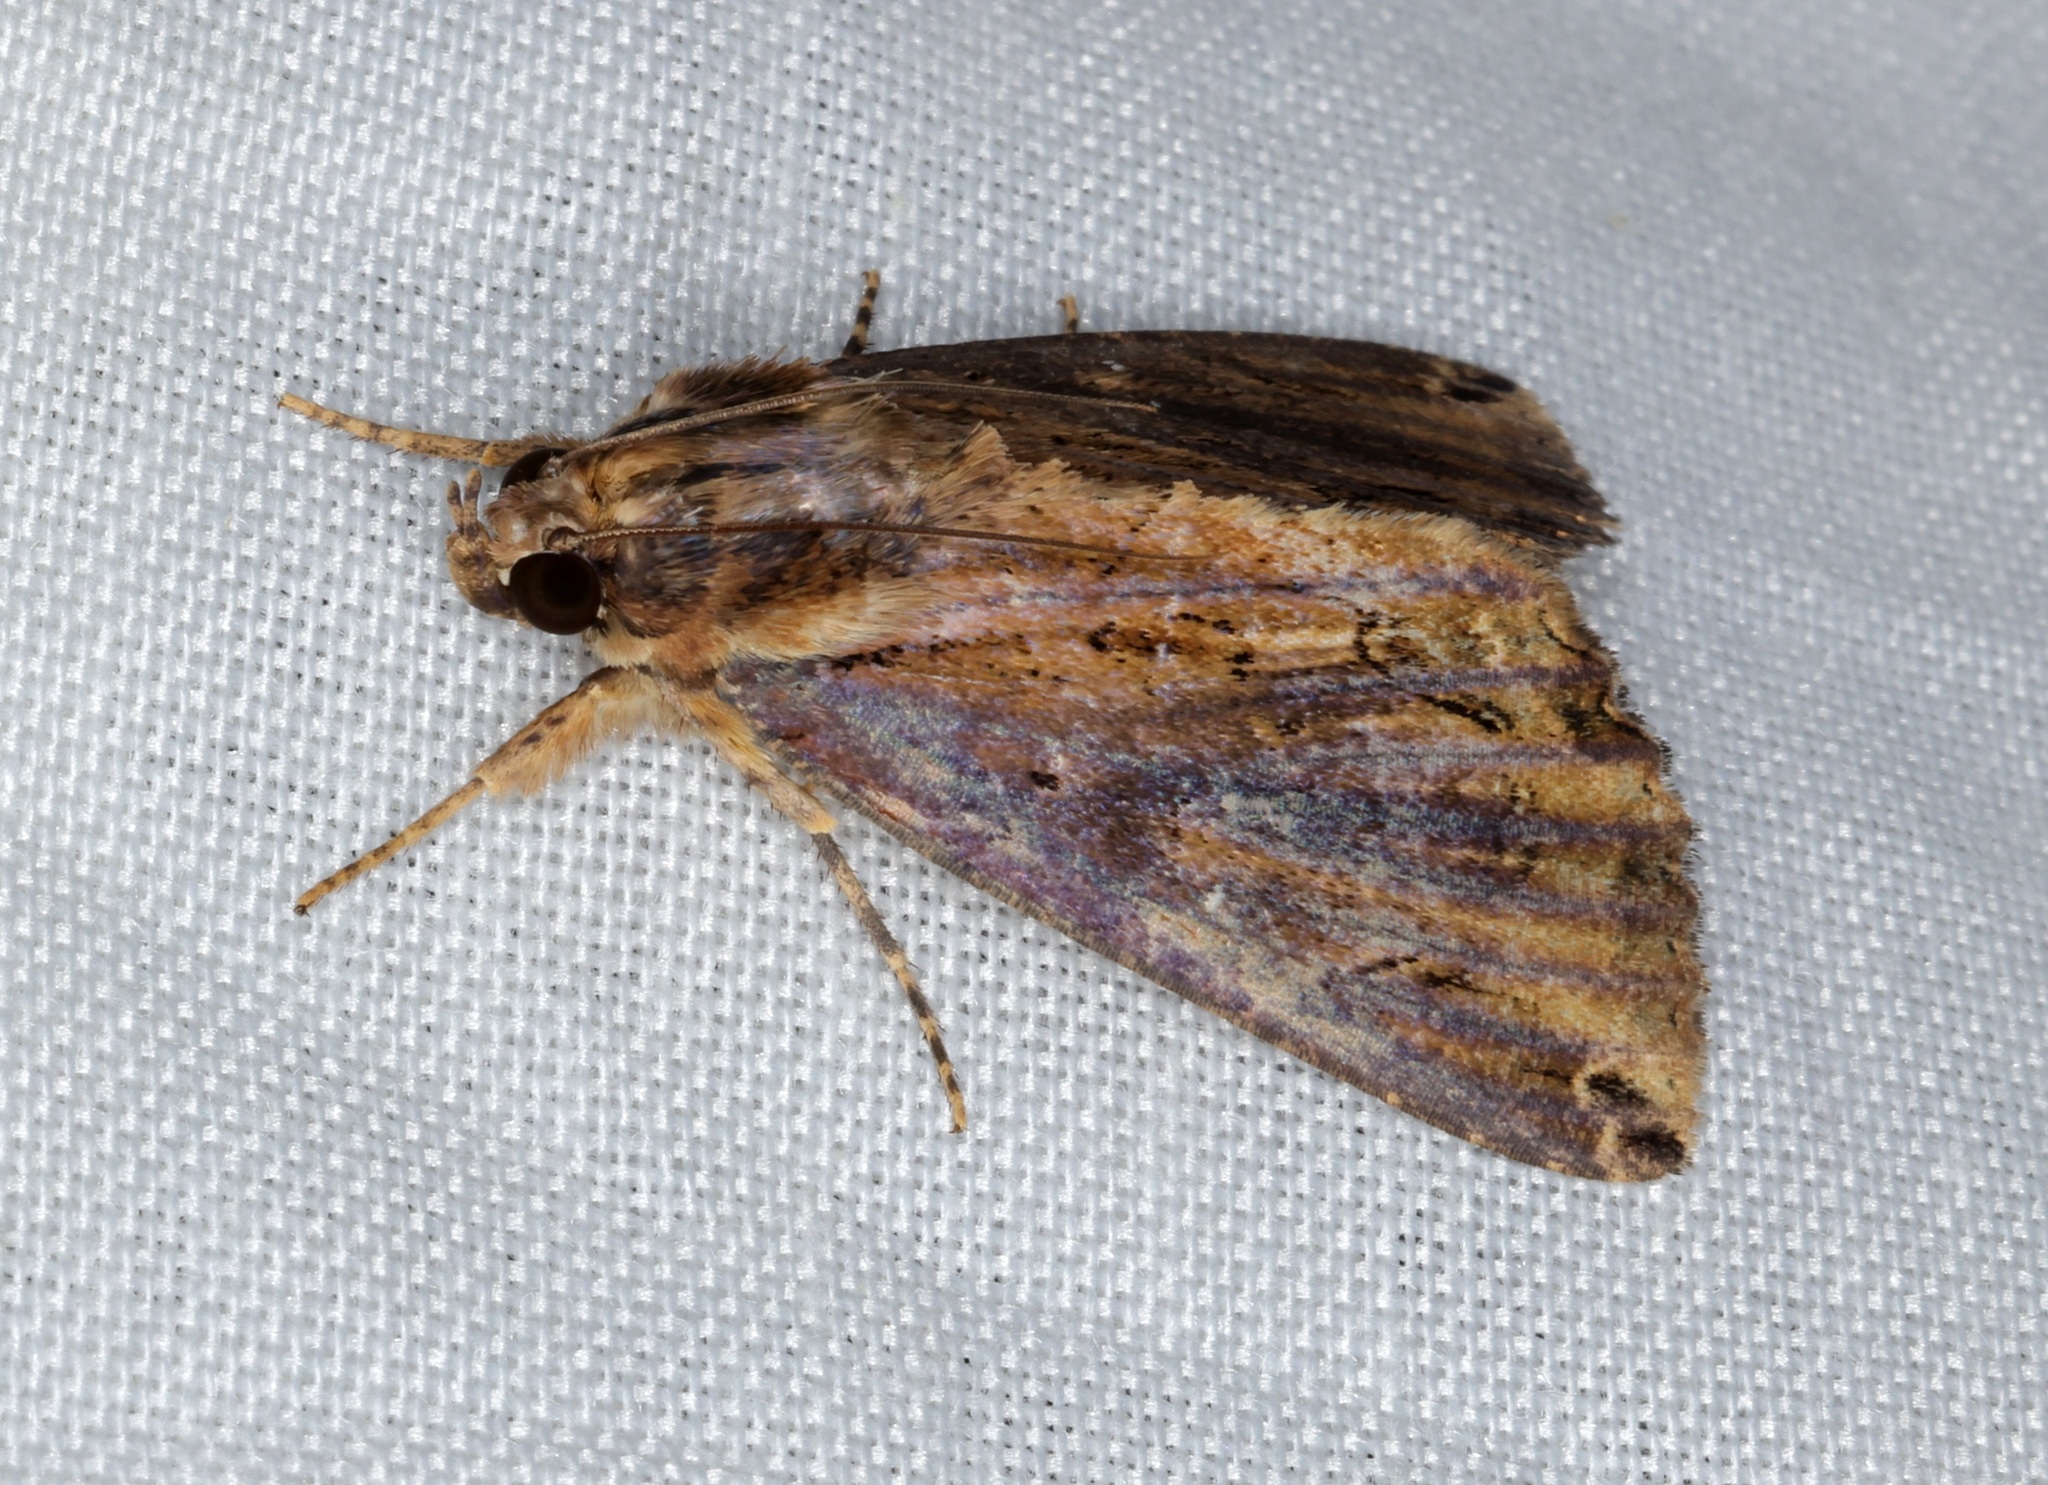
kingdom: Animalia
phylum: Arthropoda
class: Insecta
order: Lepidoptera
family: Erebidae
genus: Ercheia
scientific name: Ercheia cyllaria
